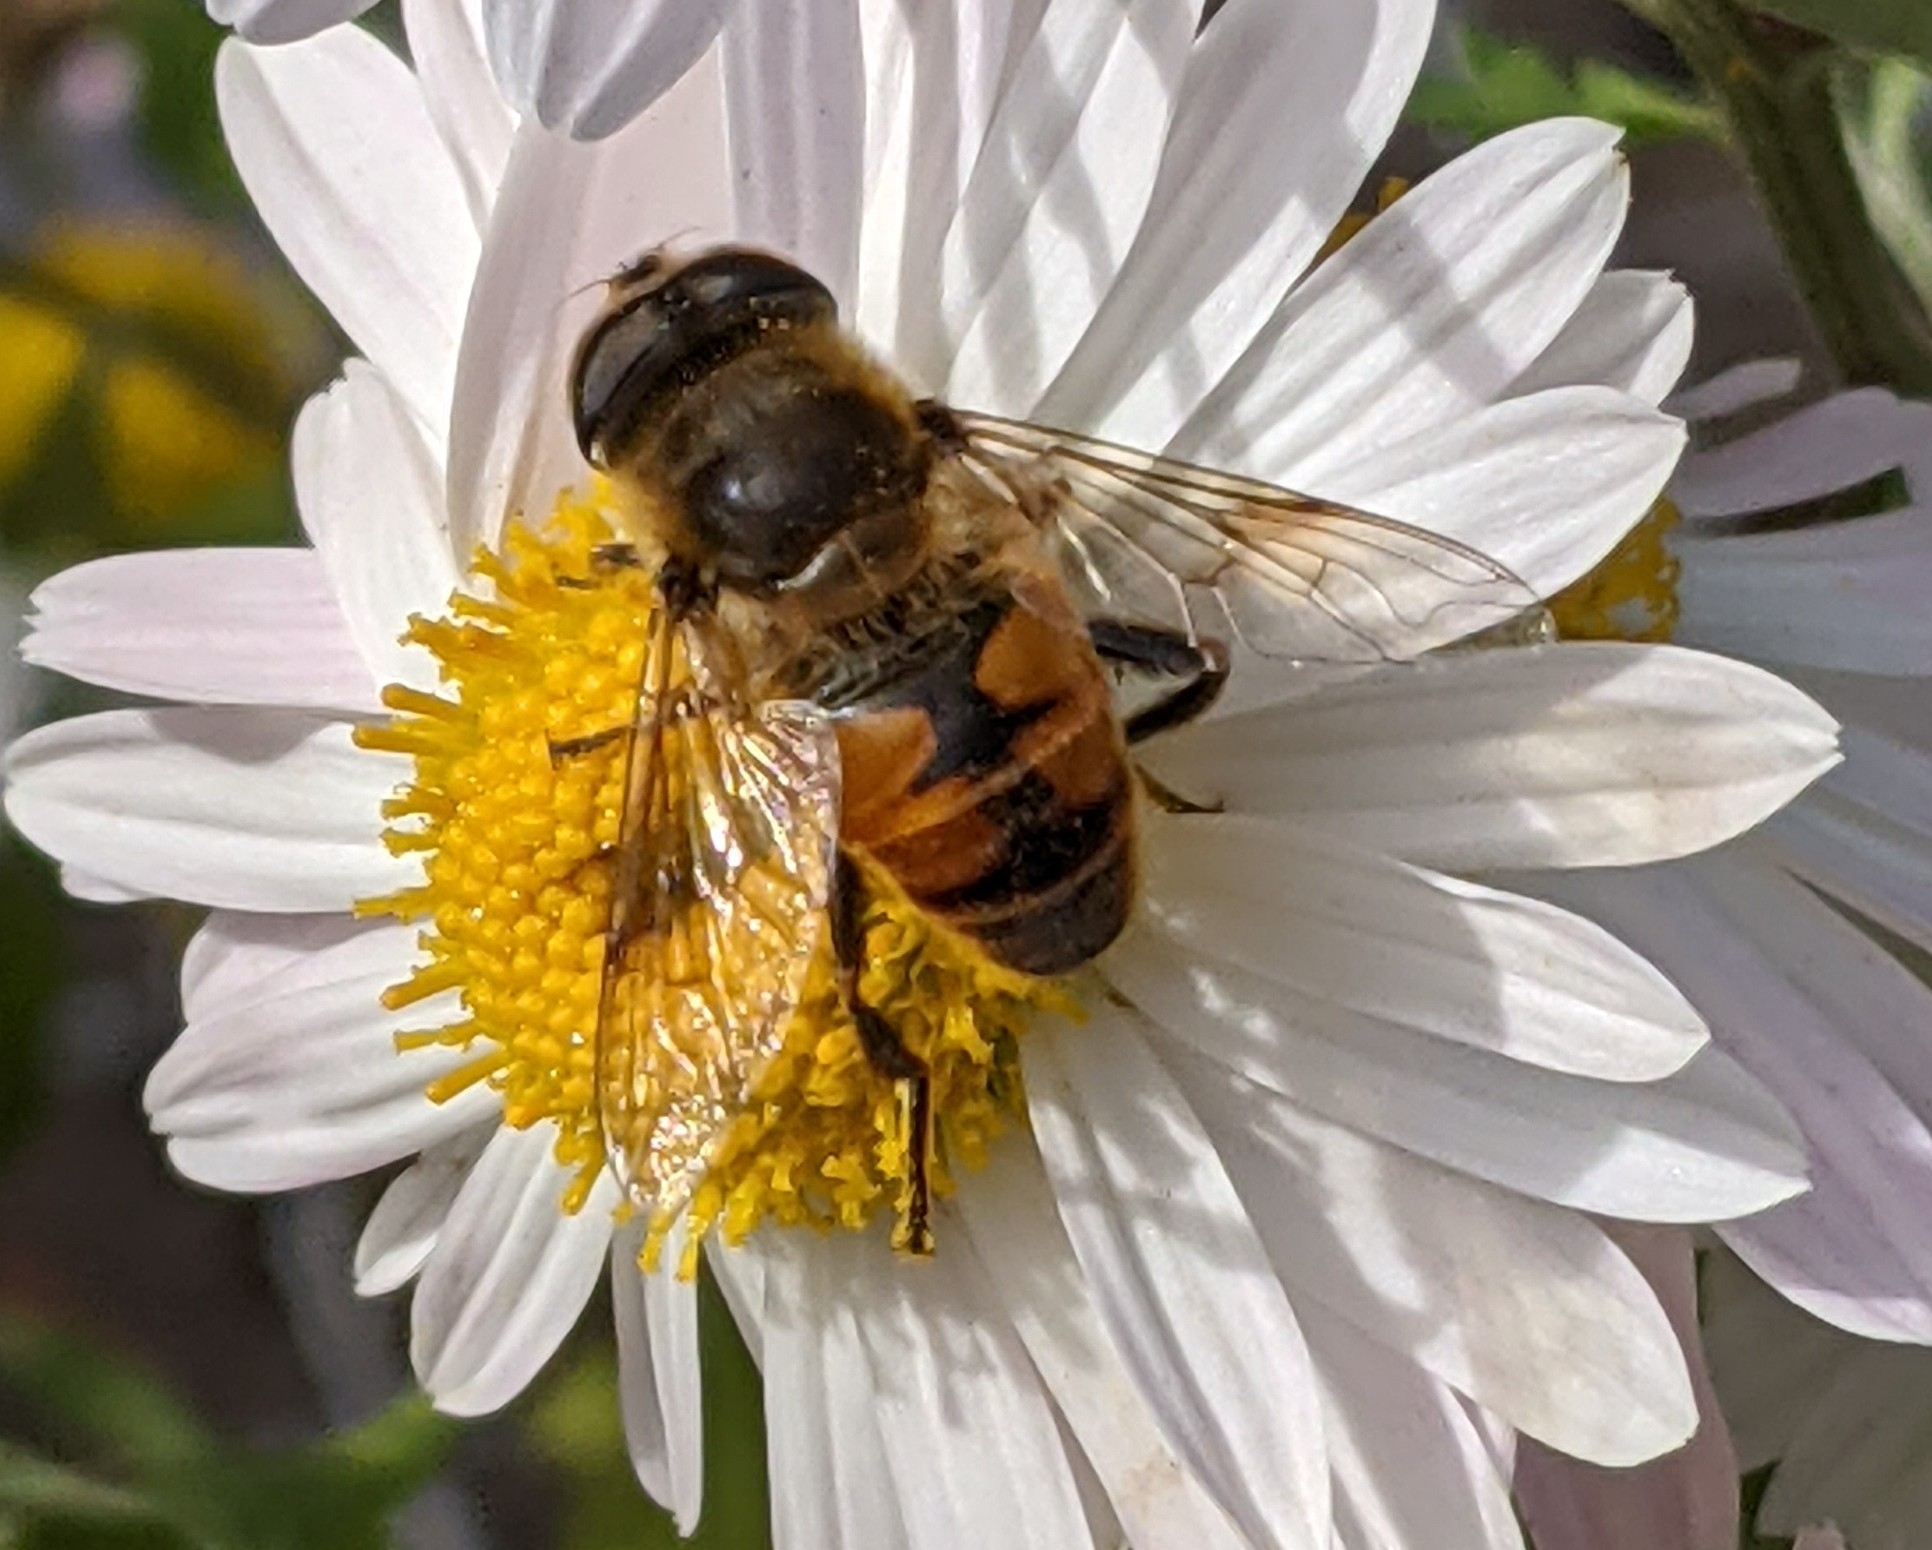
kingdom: Animalia
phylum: Arthropoda
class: Insecta
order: Diptera
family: Syrphidae
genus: Eristalis
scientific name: Eristalis tenax
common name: Drone fly
